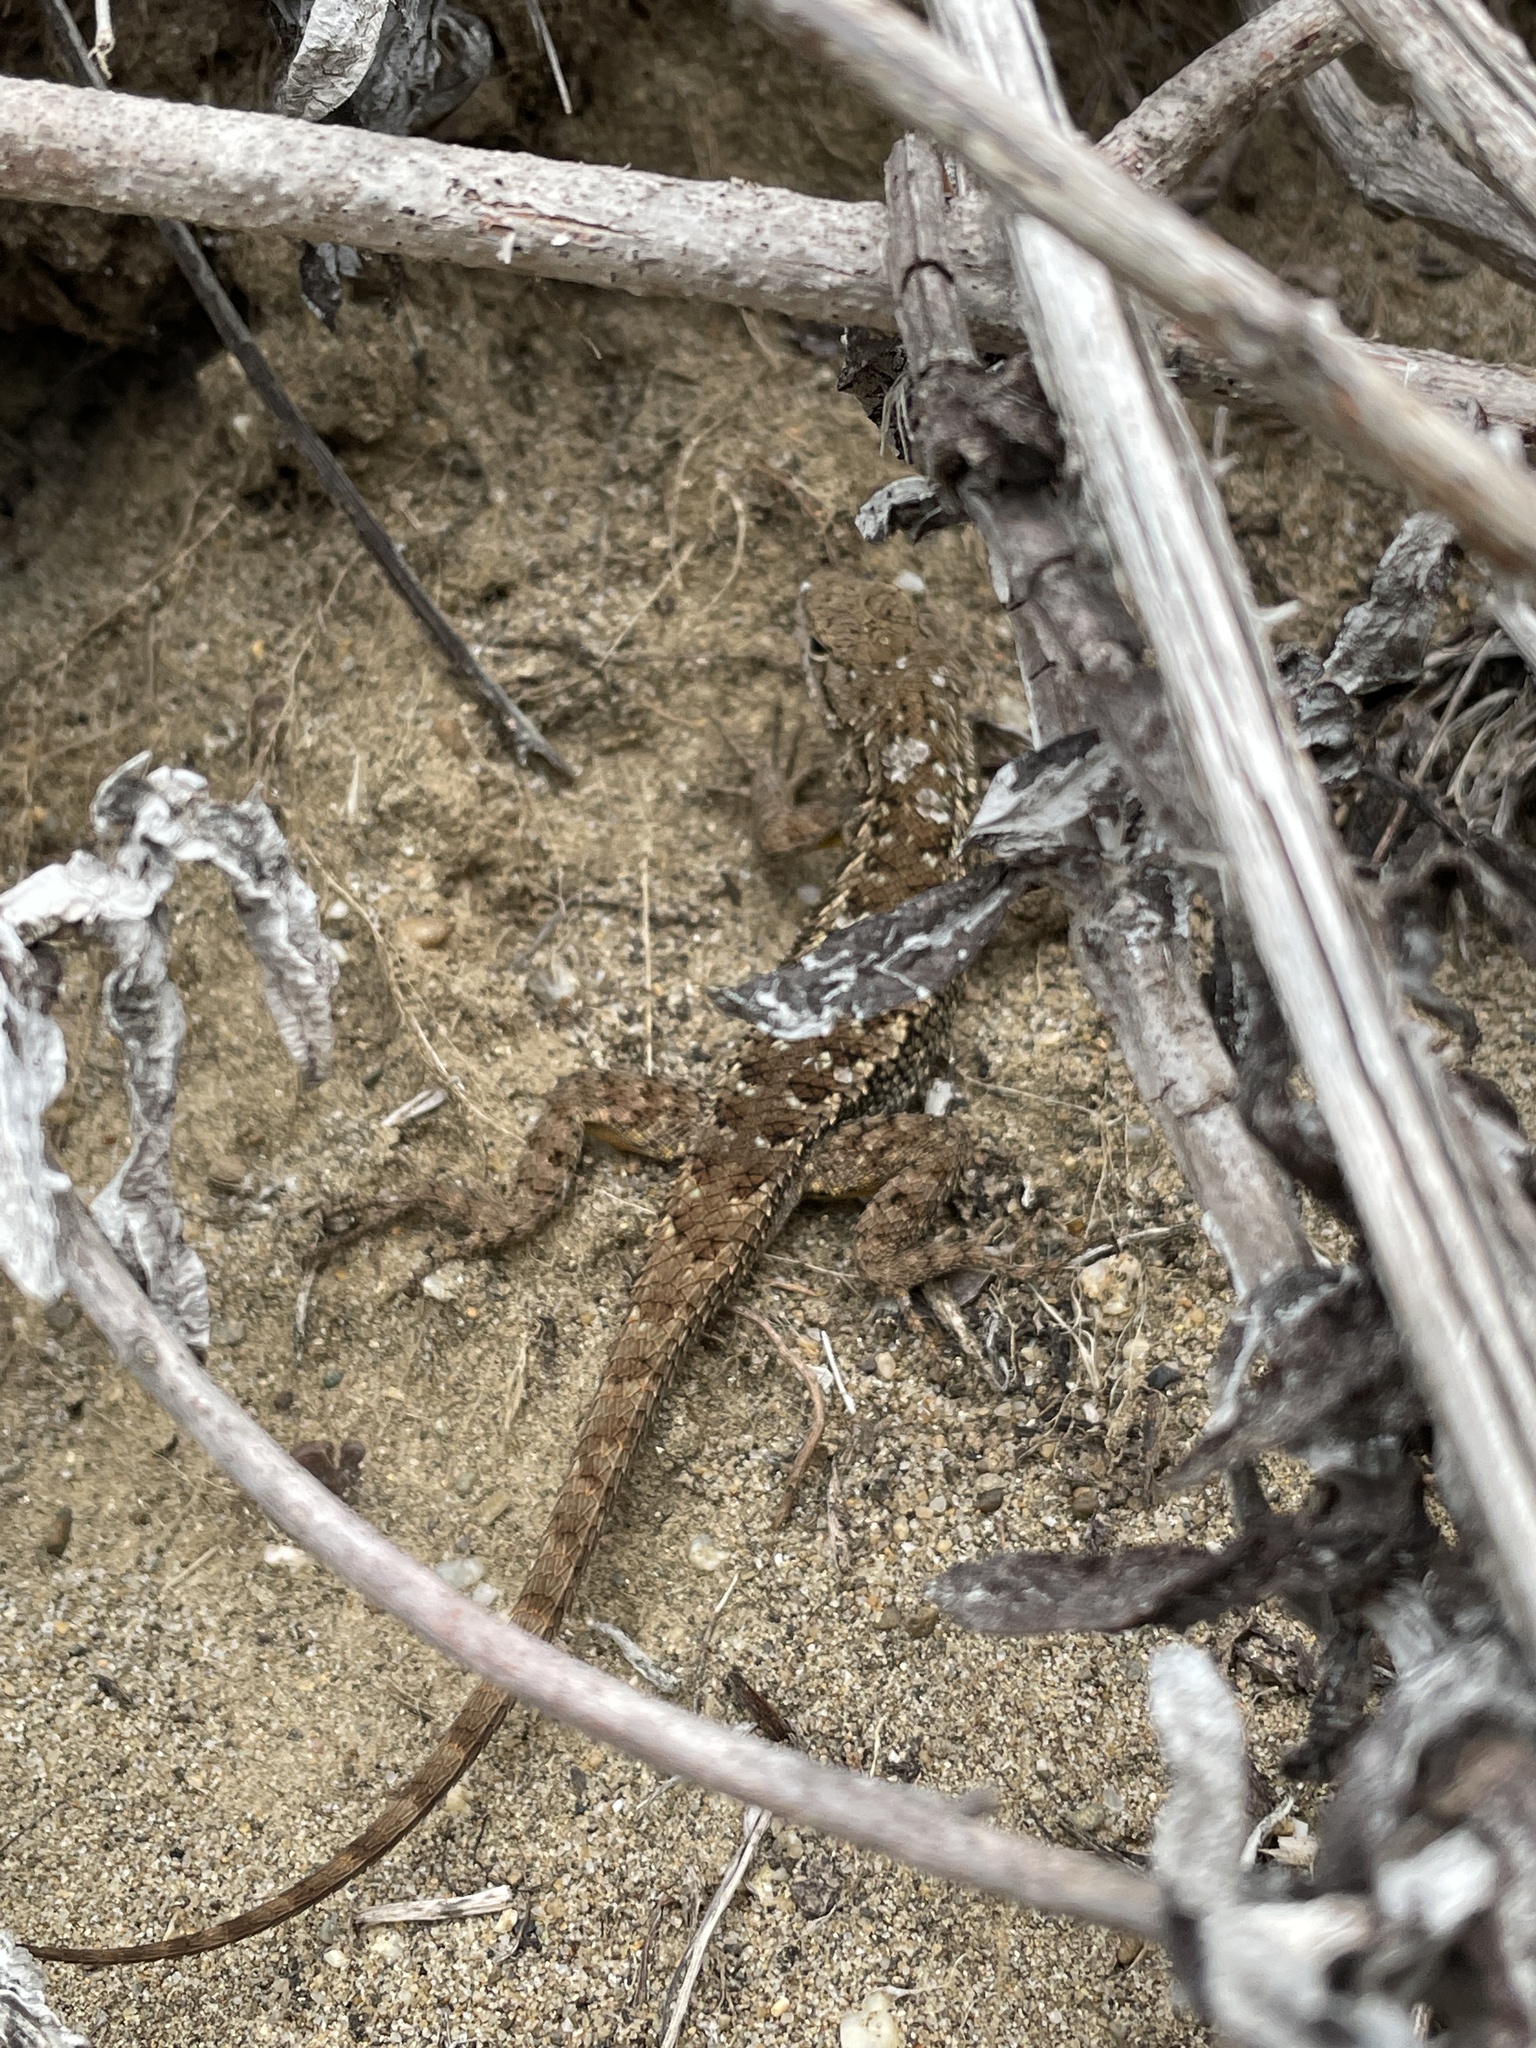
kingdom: Animalia
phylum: Chordata
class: Squamata
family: Phrynosomatidae
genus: Sceloporus
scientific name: Sceloporus occidentalis
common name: Western fence lizard
